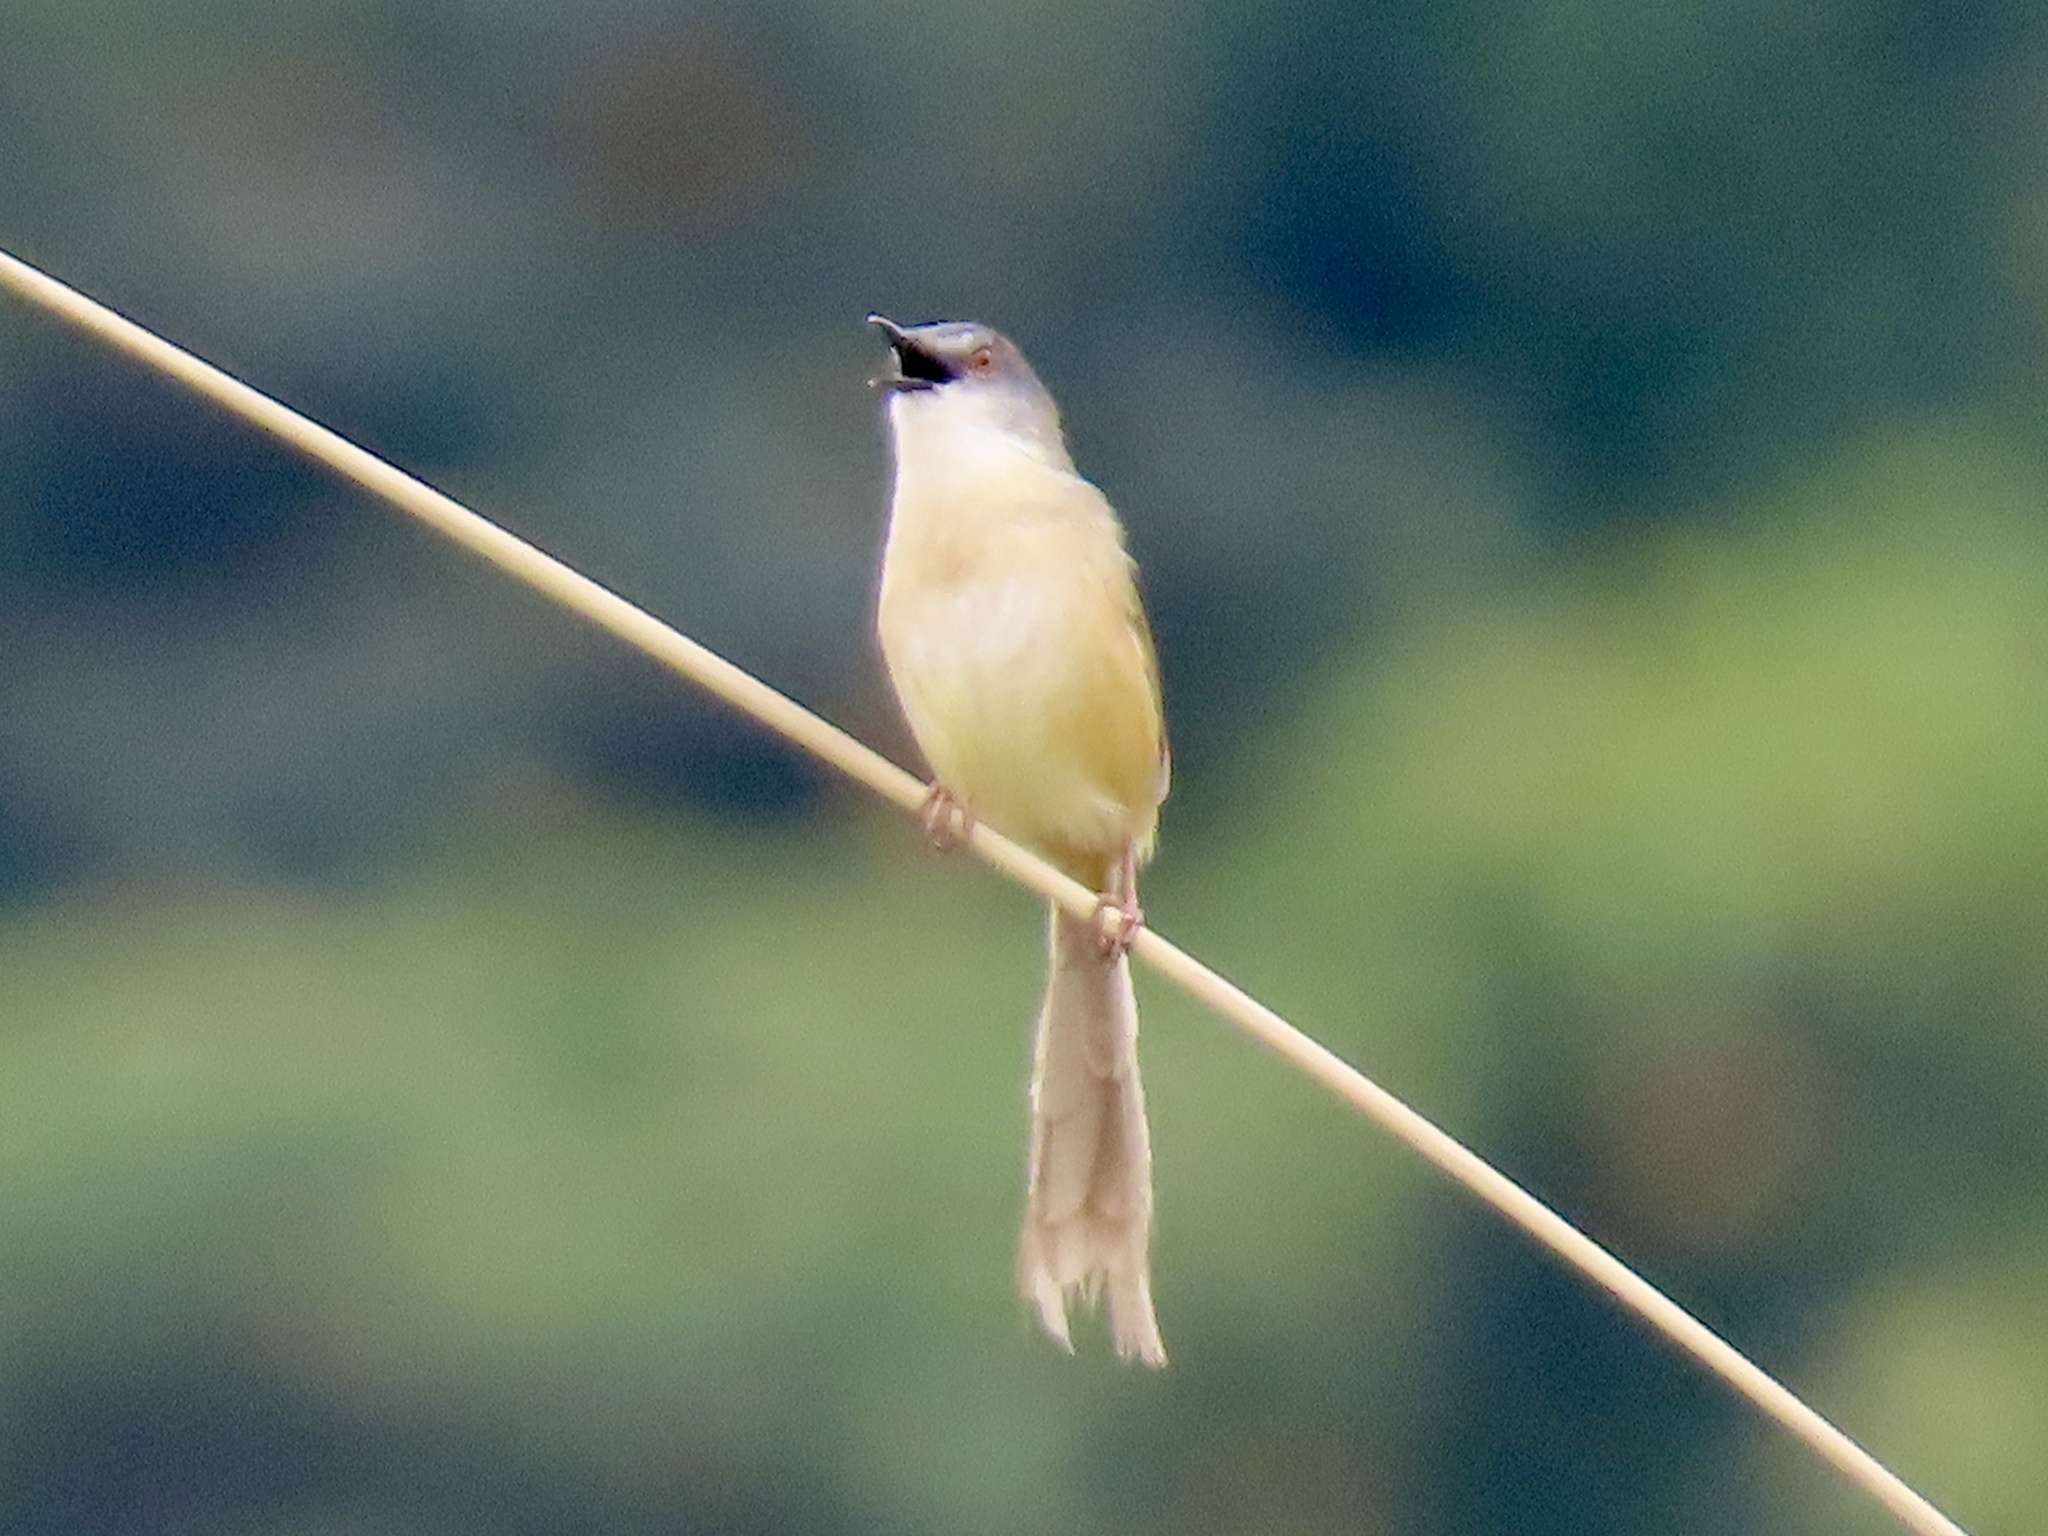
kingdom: Animalia
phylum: Chordata
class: Aves
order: Passeriformes
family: Cisticolidae
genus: Prinia
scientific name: Prinia flaviventris
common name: Yellow-bellied prinia
